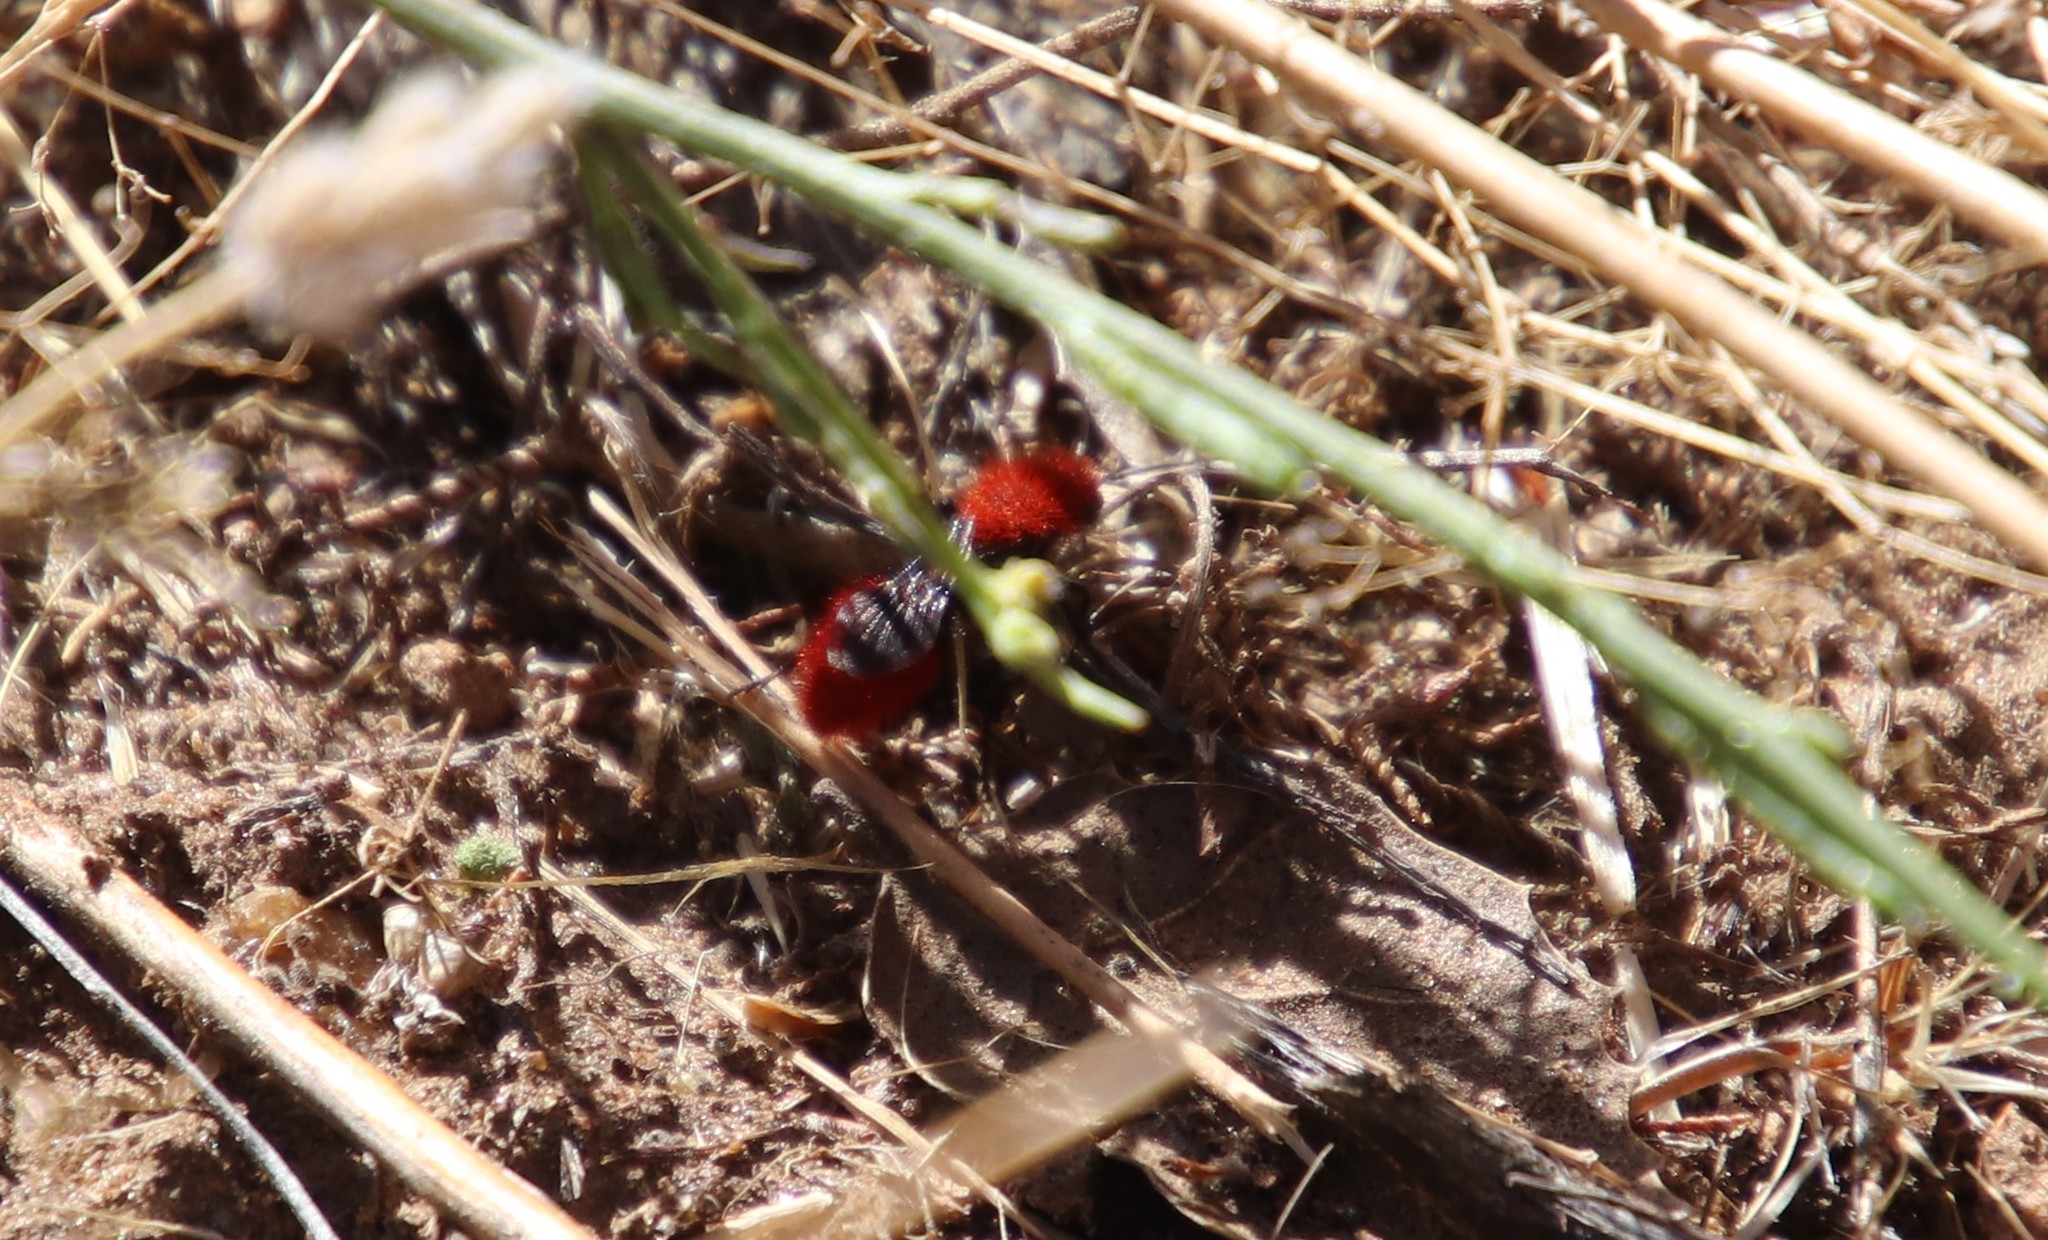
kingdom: Animalia
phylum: Arthropoda
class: Insecta
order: Hymenoptera
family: Mutillidae
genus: Dasymutilla
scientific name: Dasymutilla
